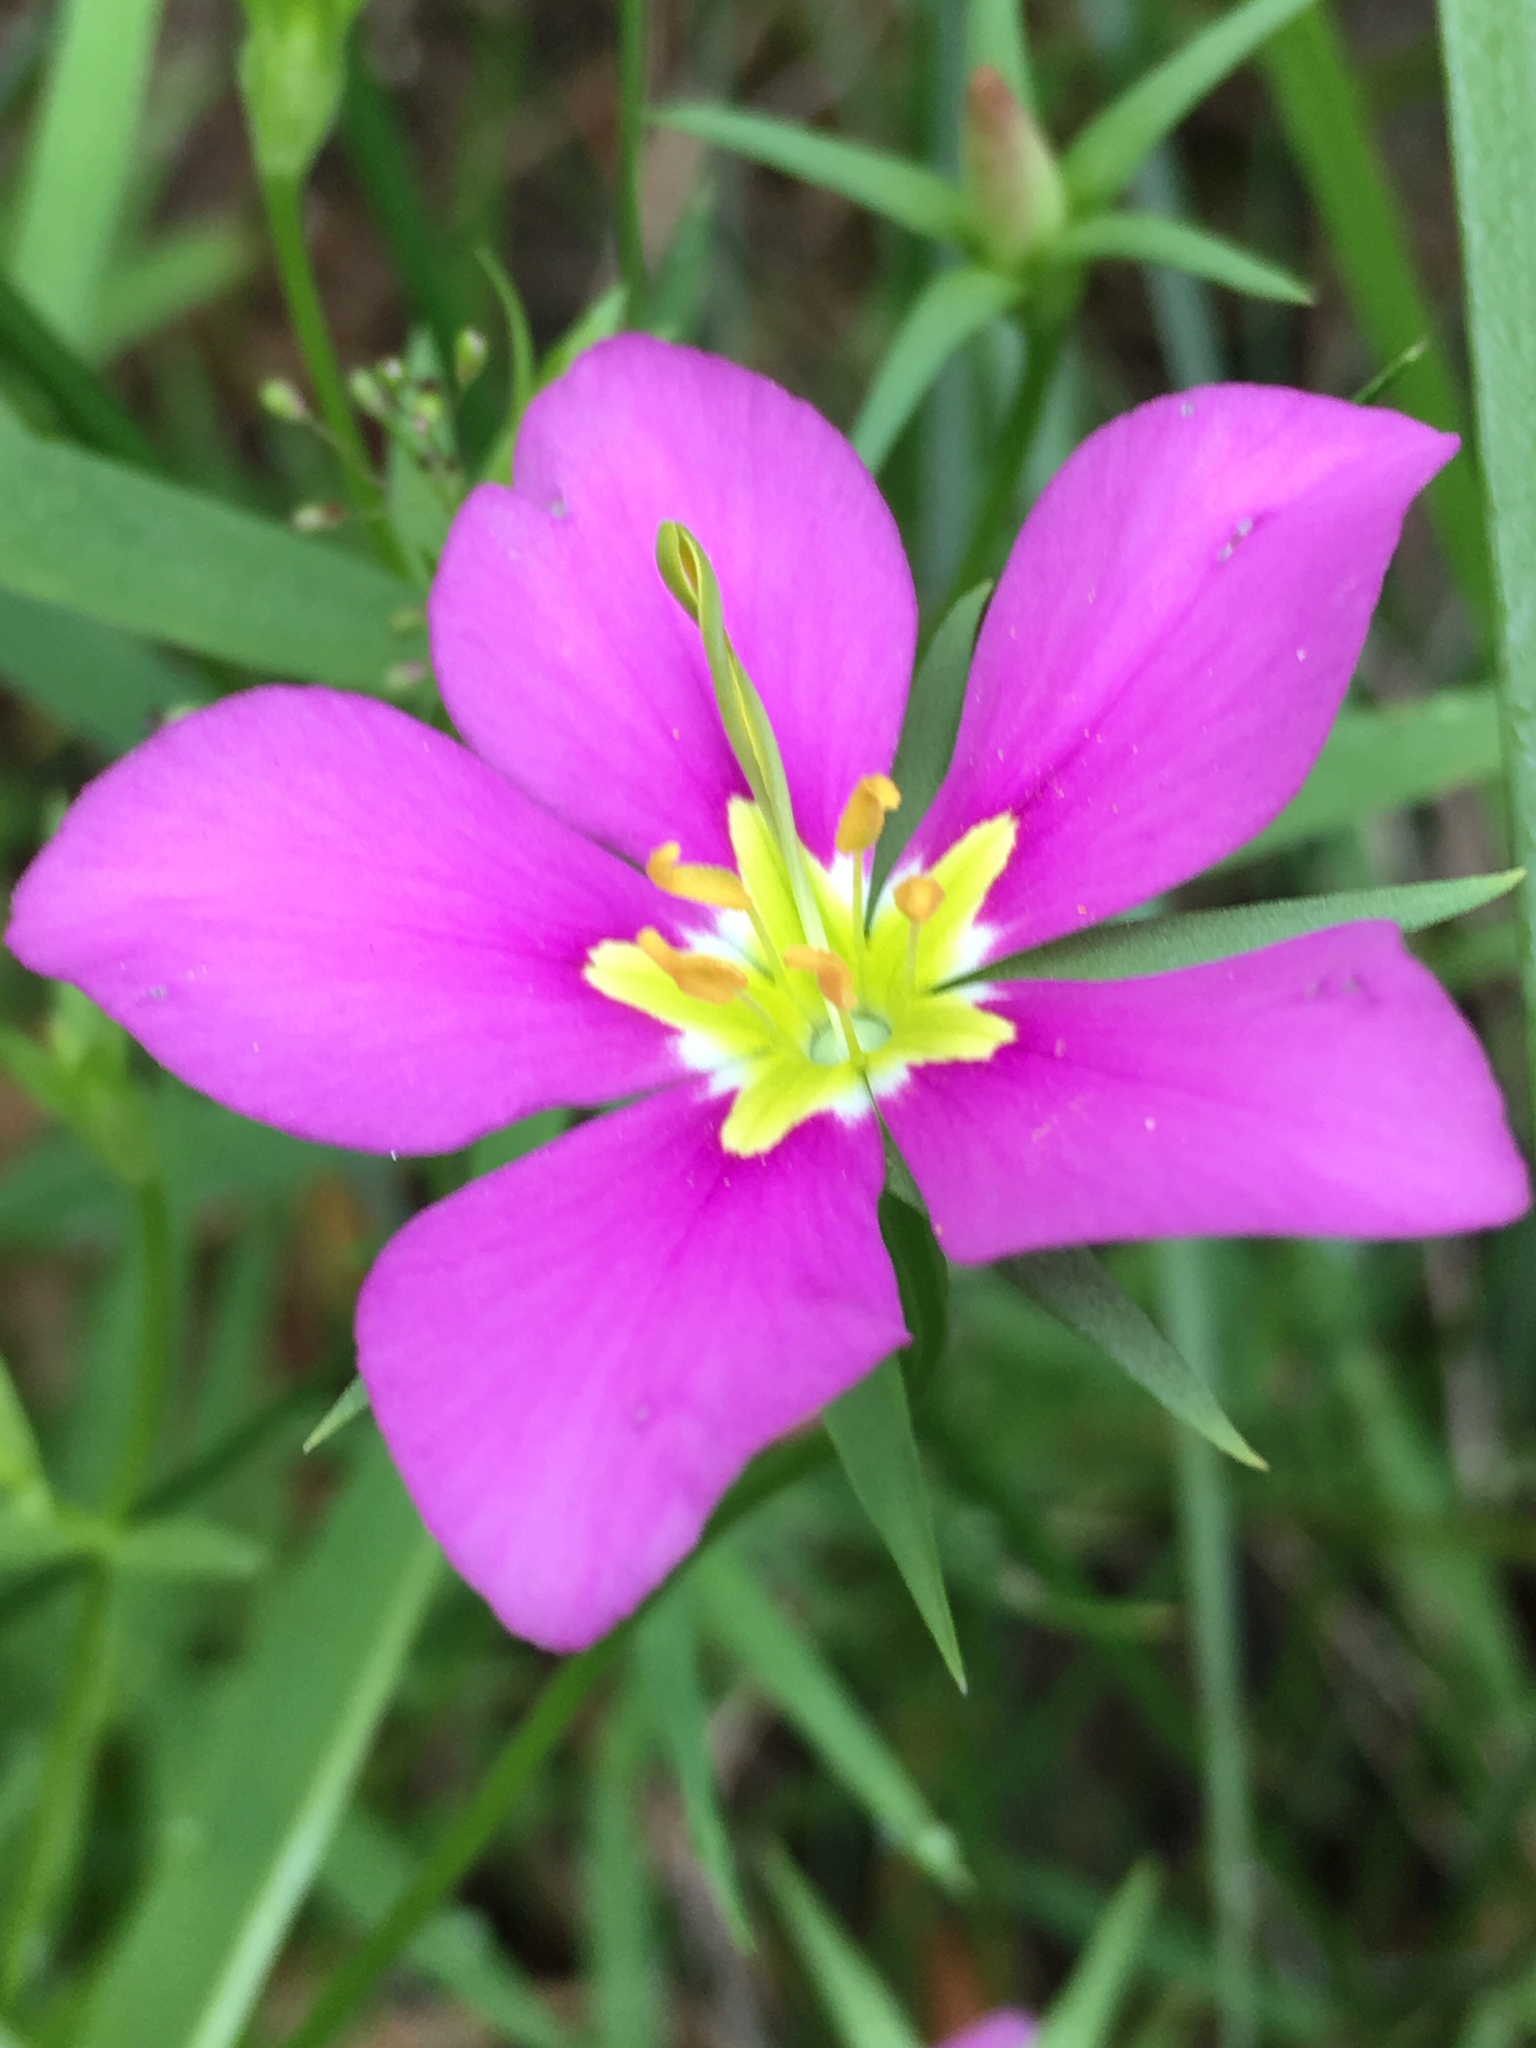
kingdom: Plantae
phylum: Tracheophyta
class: Magnoliopsida
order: Gentianales
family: Gentianaceae
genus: Sabatia
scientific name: Sabatia campestris
